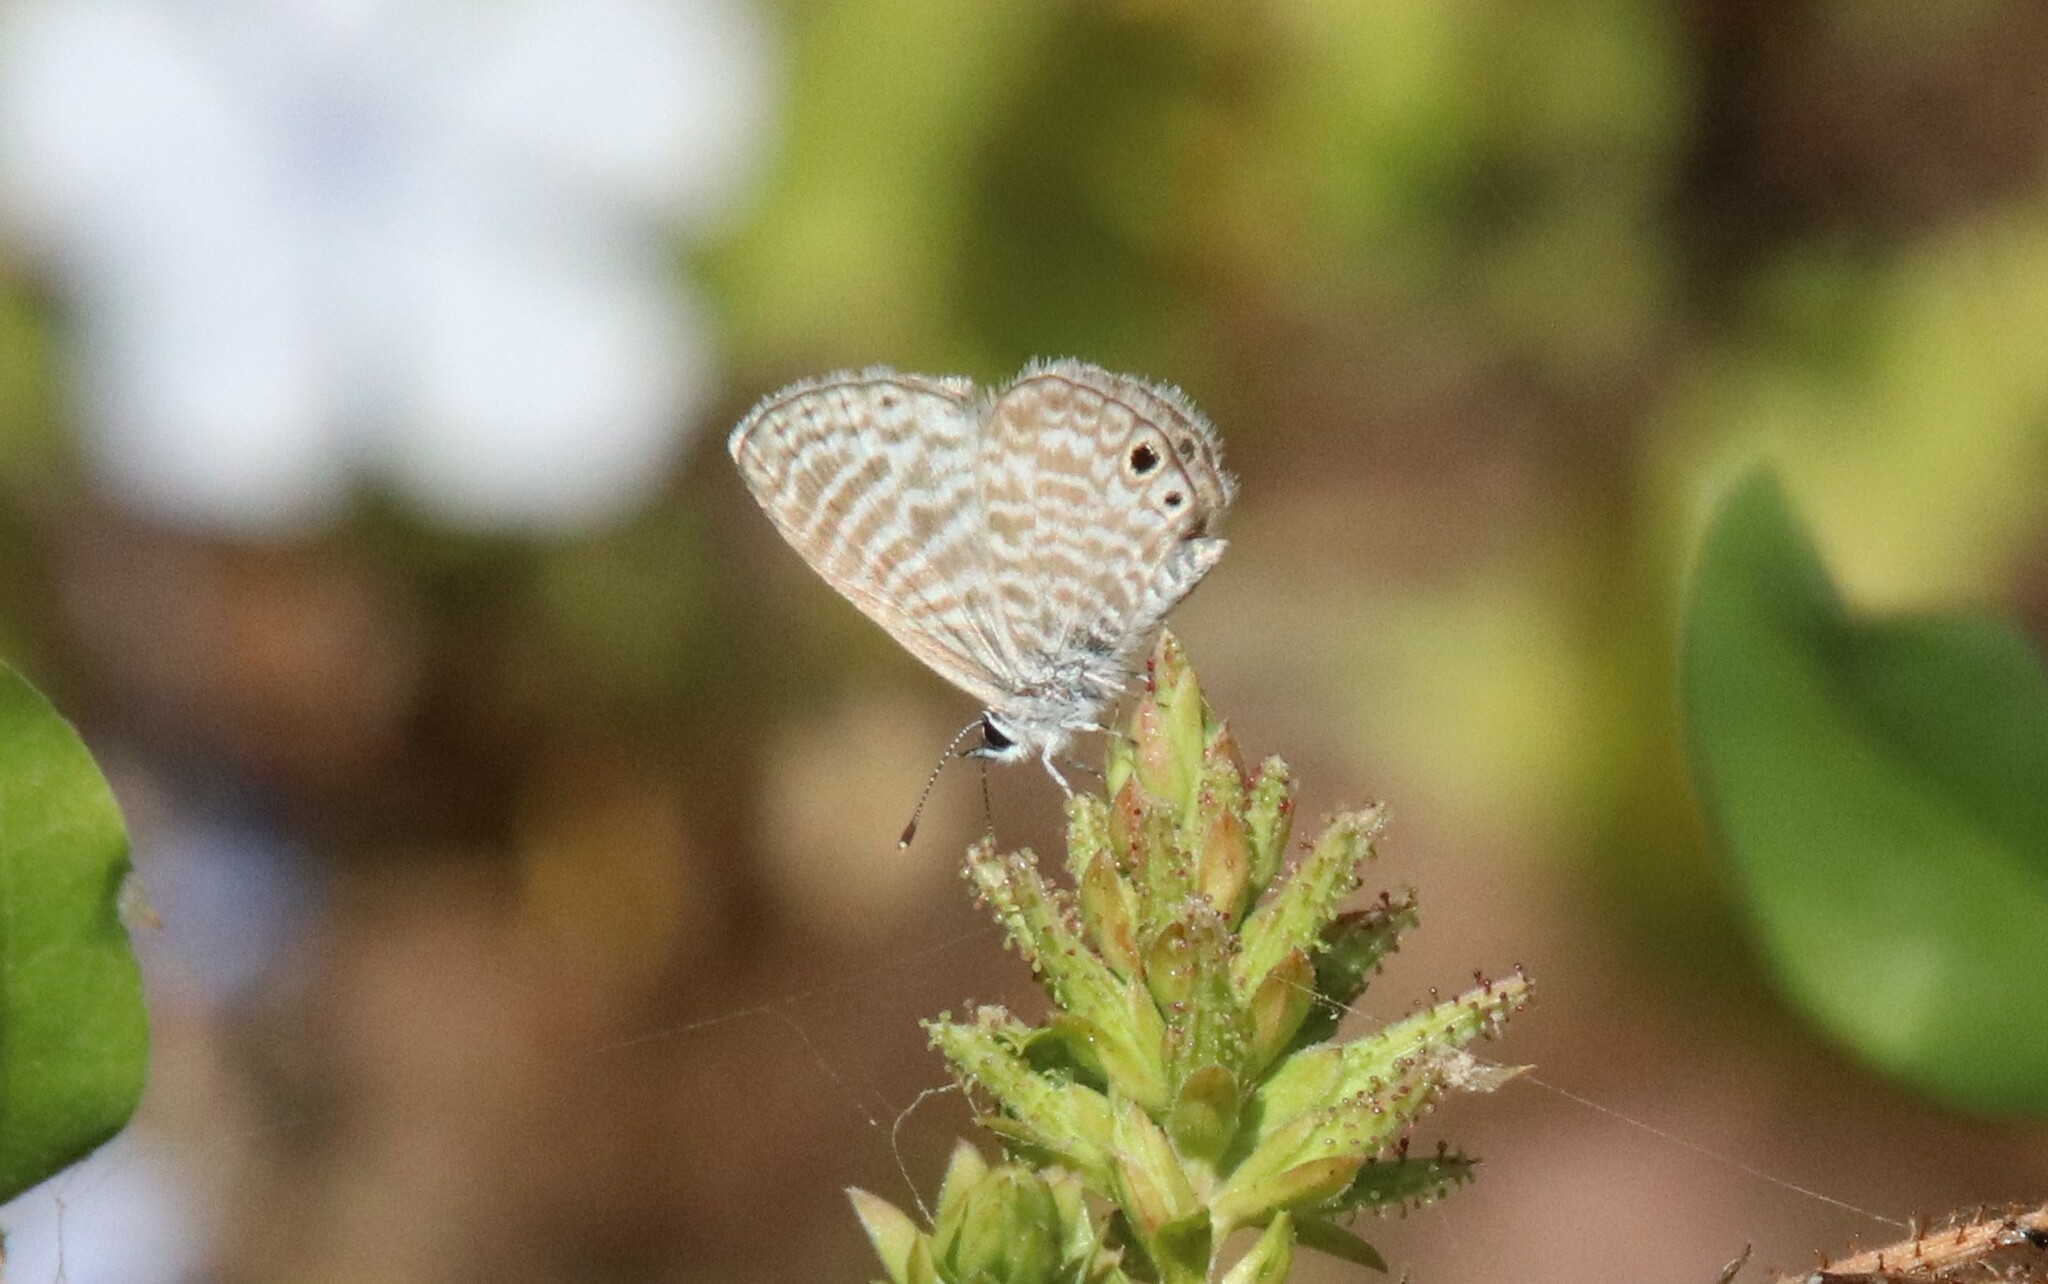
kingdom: Animalia
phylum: Arthropoda
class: Insecta
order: Lepidoptera
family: Lycaenidae
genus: Leptotes
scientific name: Leptotes marina
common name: Marine blue
